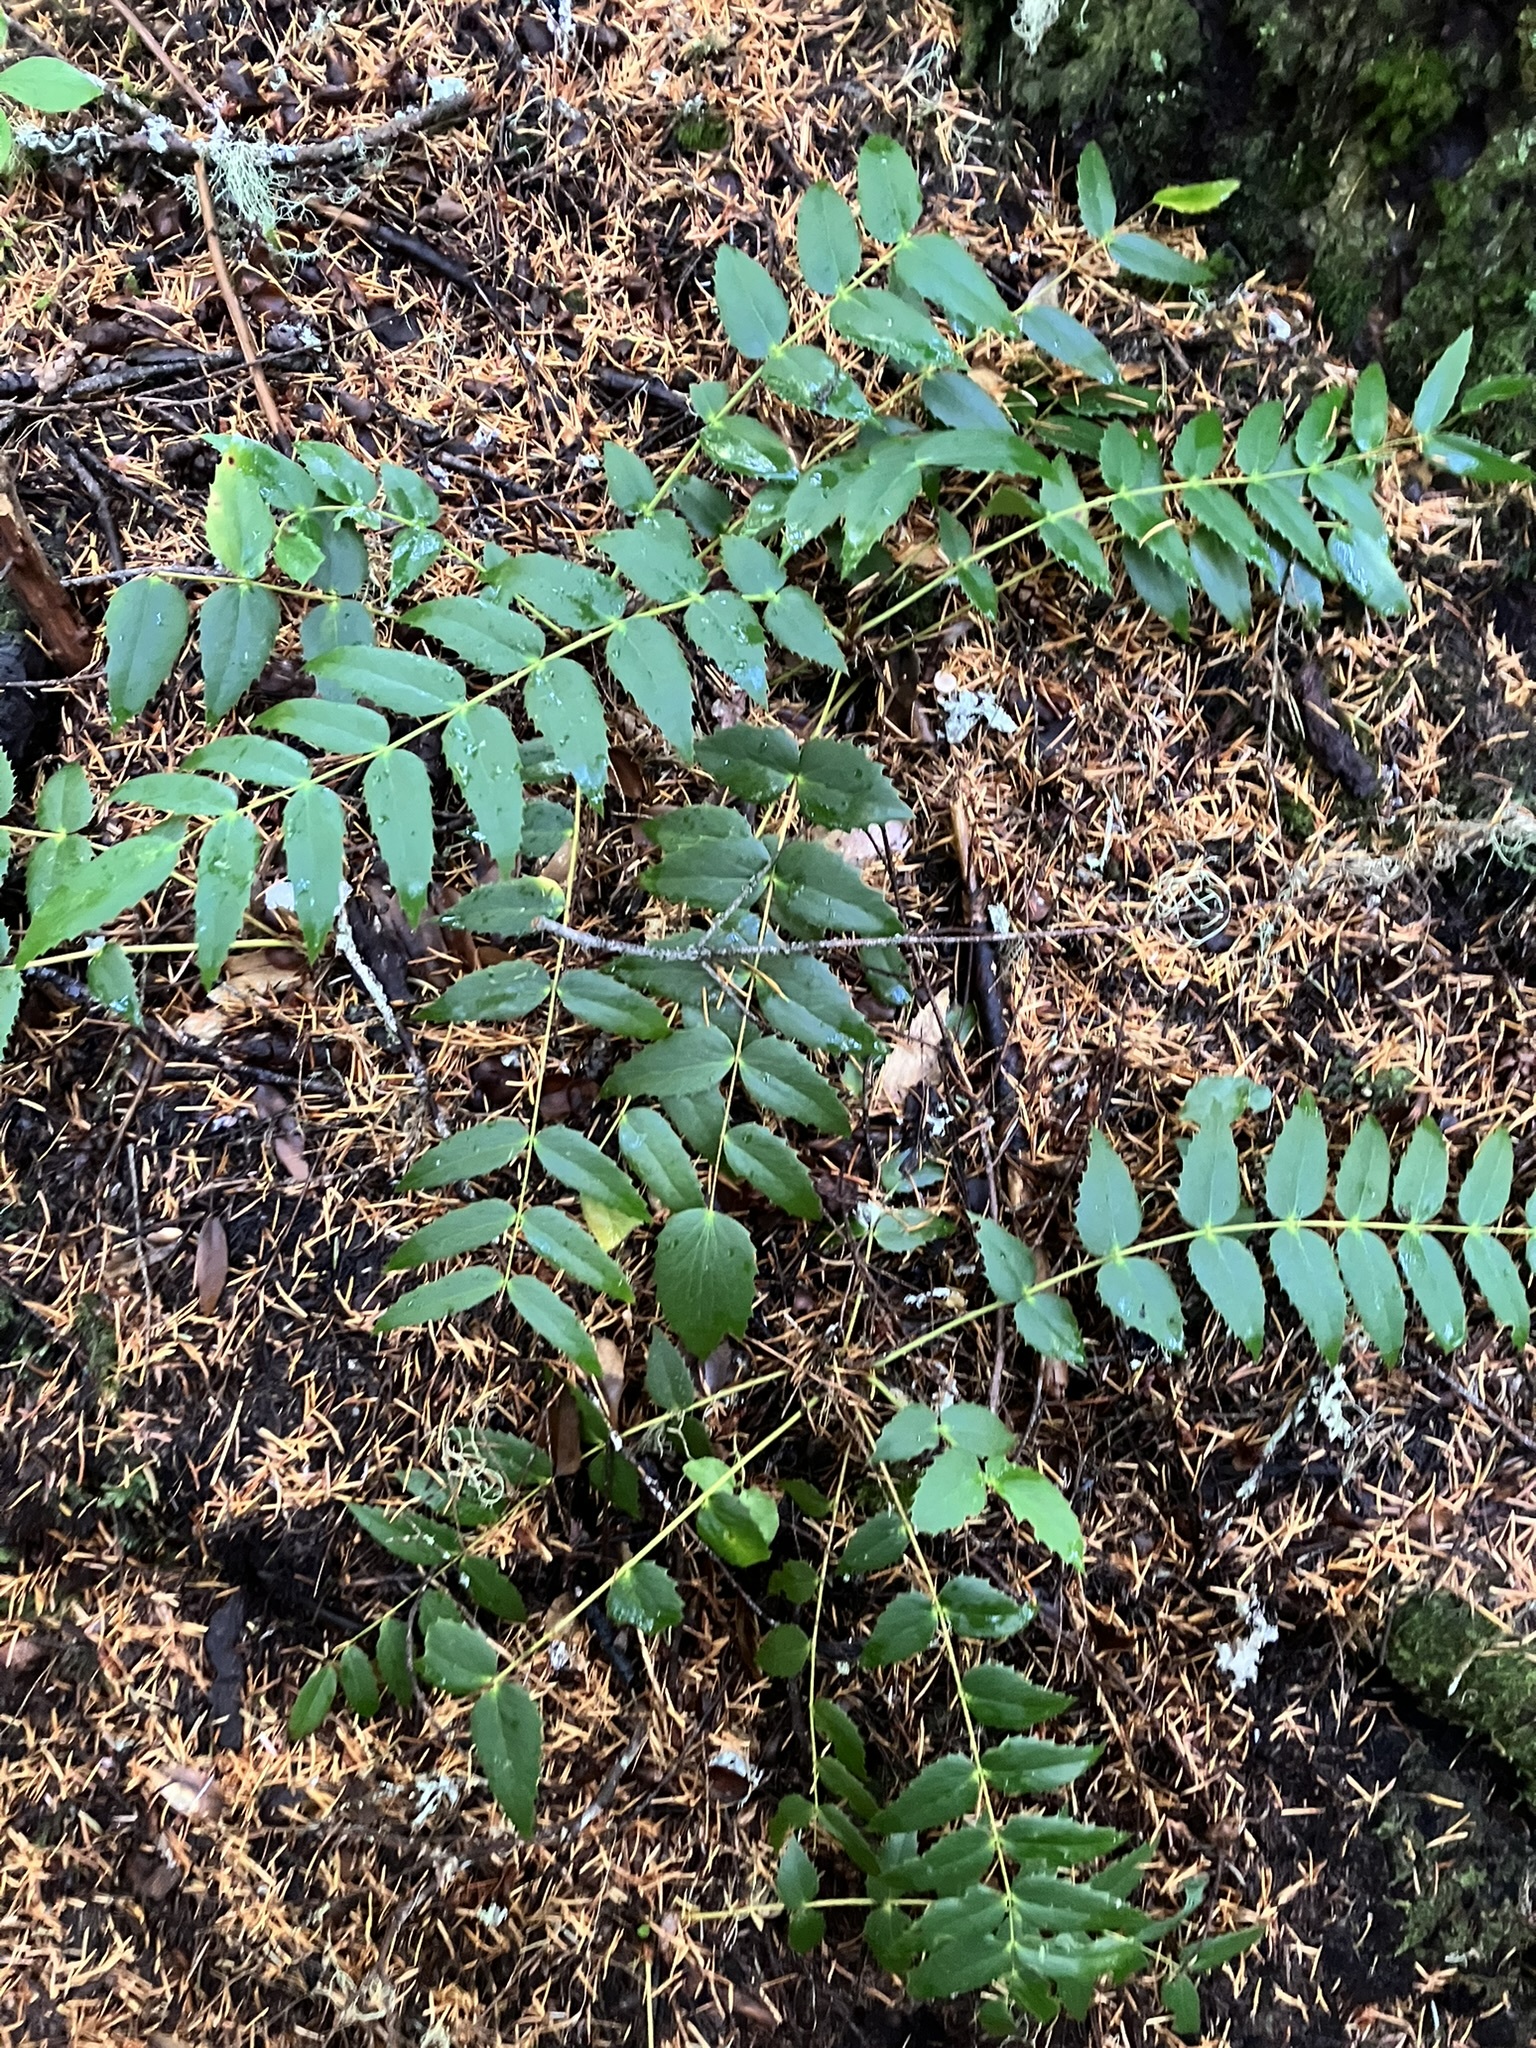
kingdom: Plantae
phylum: Tracheophyta
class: Magnoliopsida
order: Ranunculales
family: Berberidaceae
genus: Mahonia
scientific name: Mahonia nervosa
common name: Cascade oregon-grape
